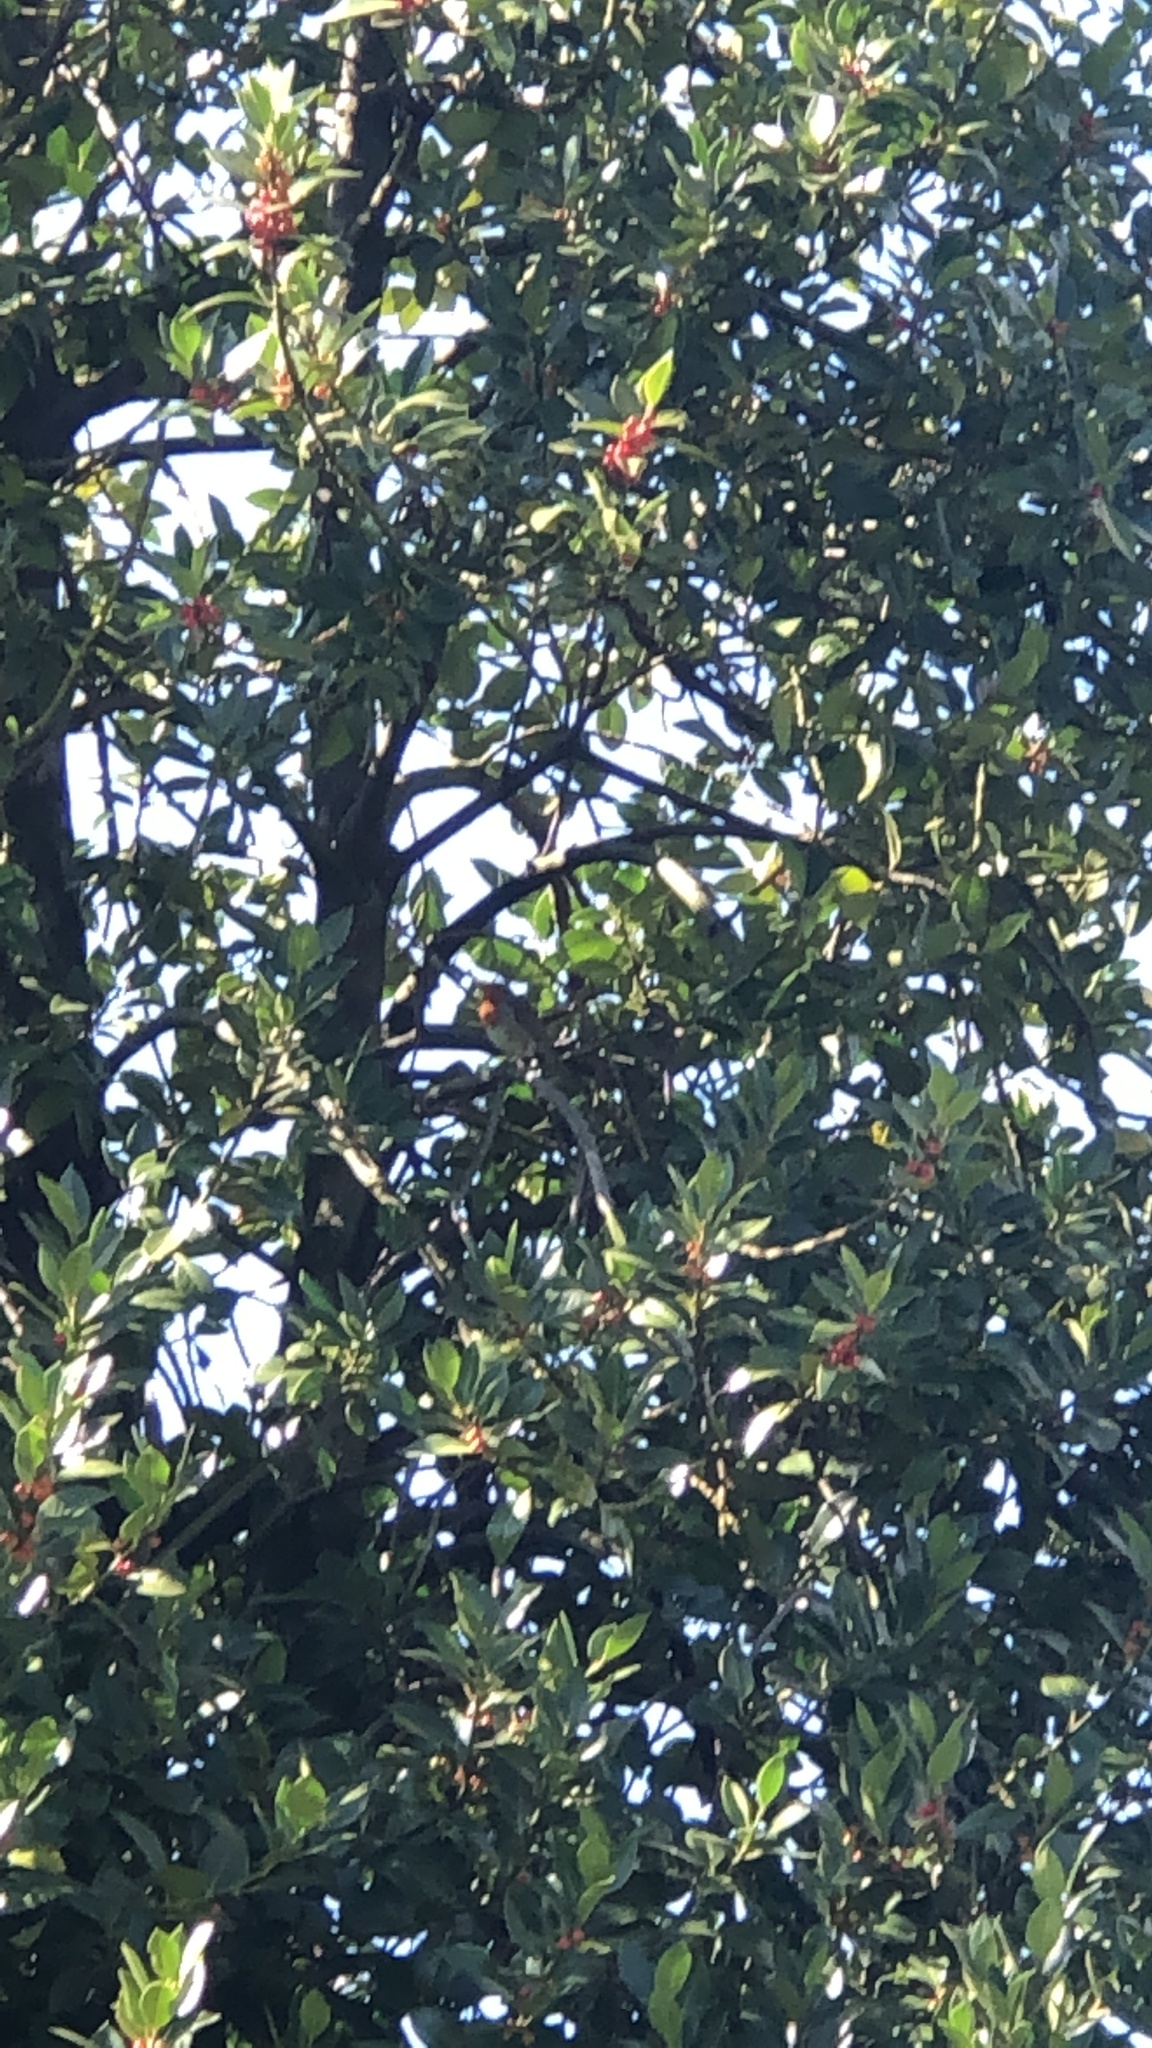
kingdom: Animalia
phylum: Chordata
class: Aves
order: Passeriformes
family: Muscicapidae
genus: Erithacus
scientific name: Erithacus rubecula
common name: European robin
